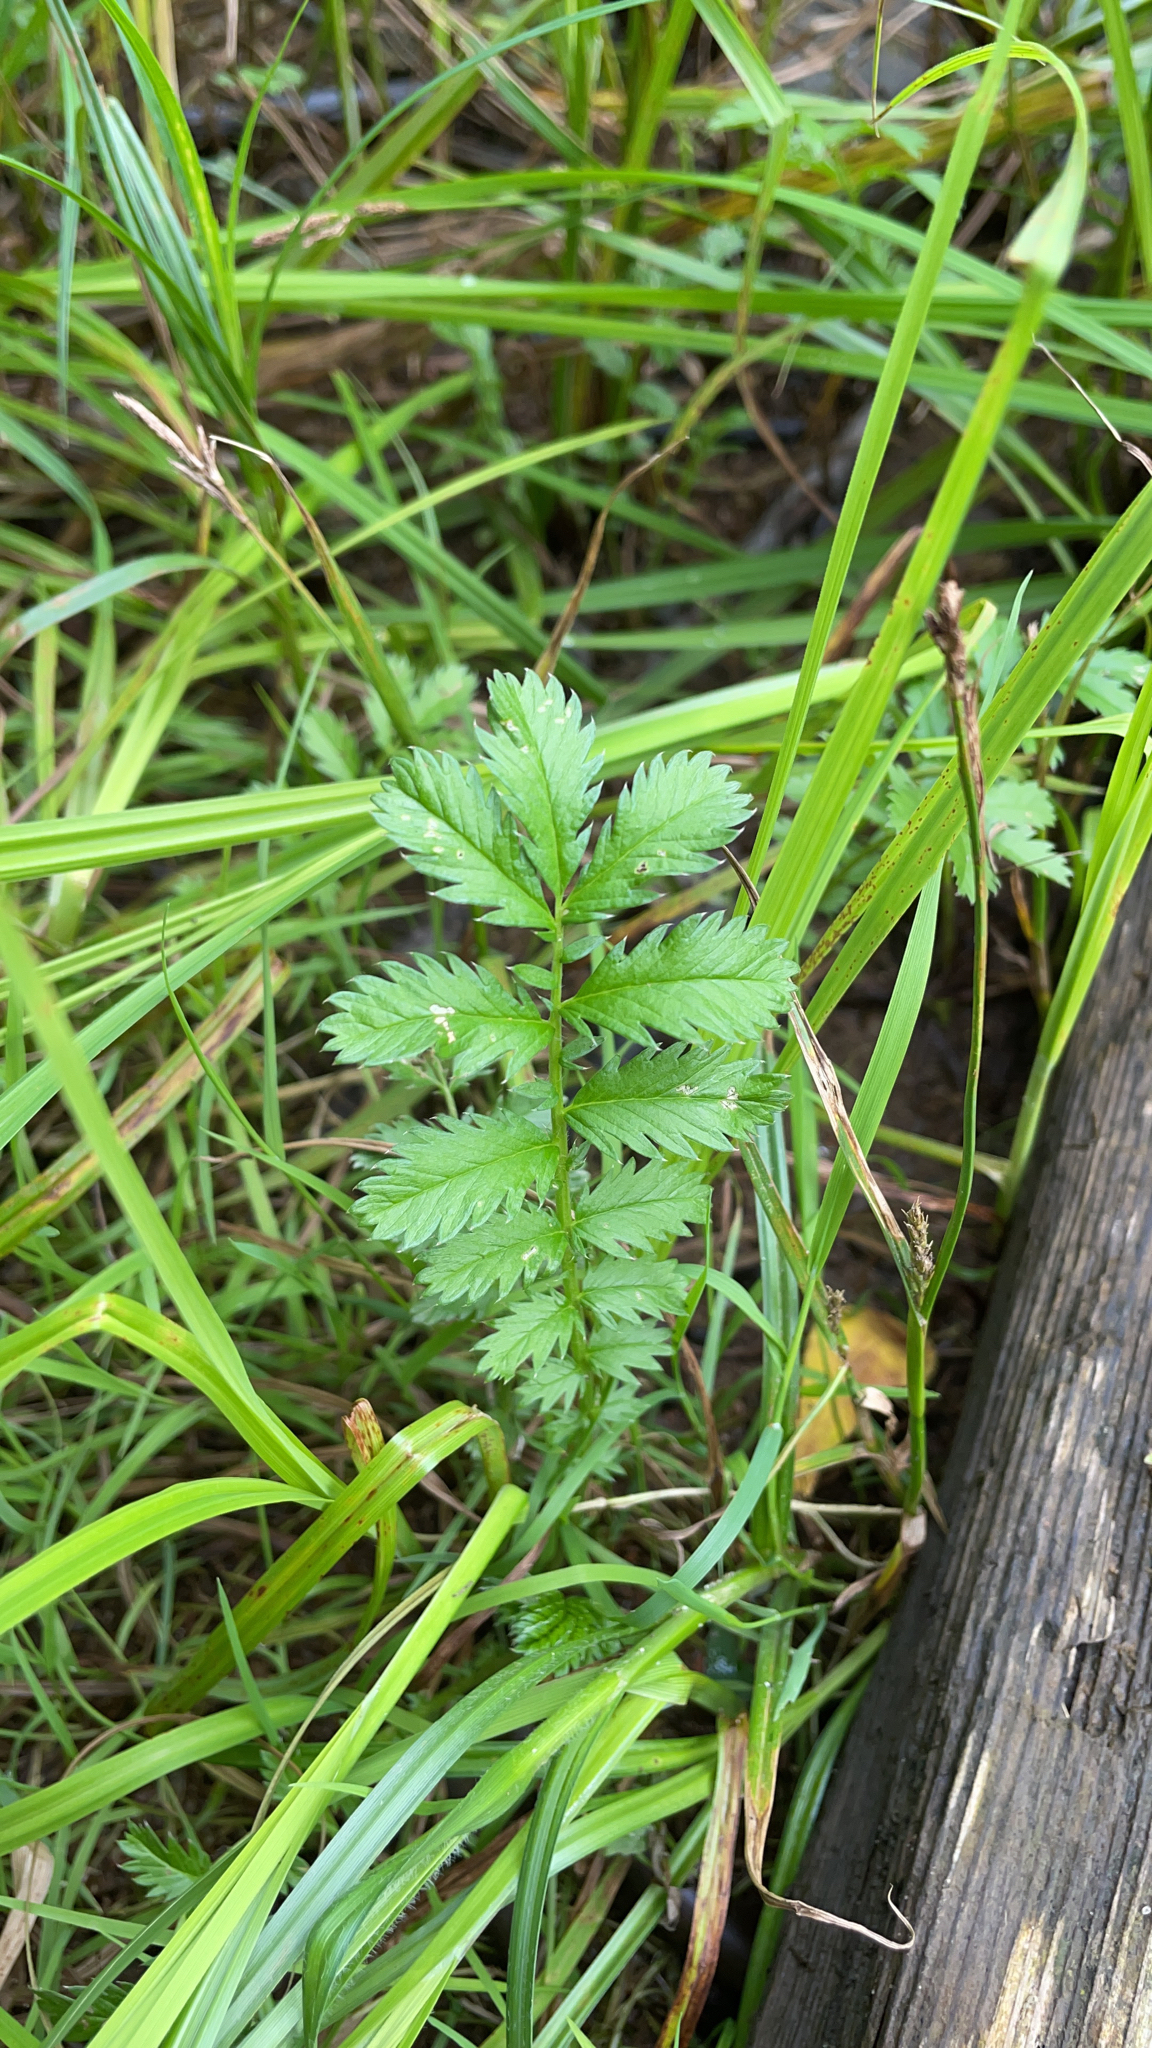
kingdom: Plantae
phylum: Tracheophyta
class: Magnoliopsida
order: Rosales
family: Rosaceae
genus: Argentina
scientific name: Argentina anserina
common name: Common silverweed
